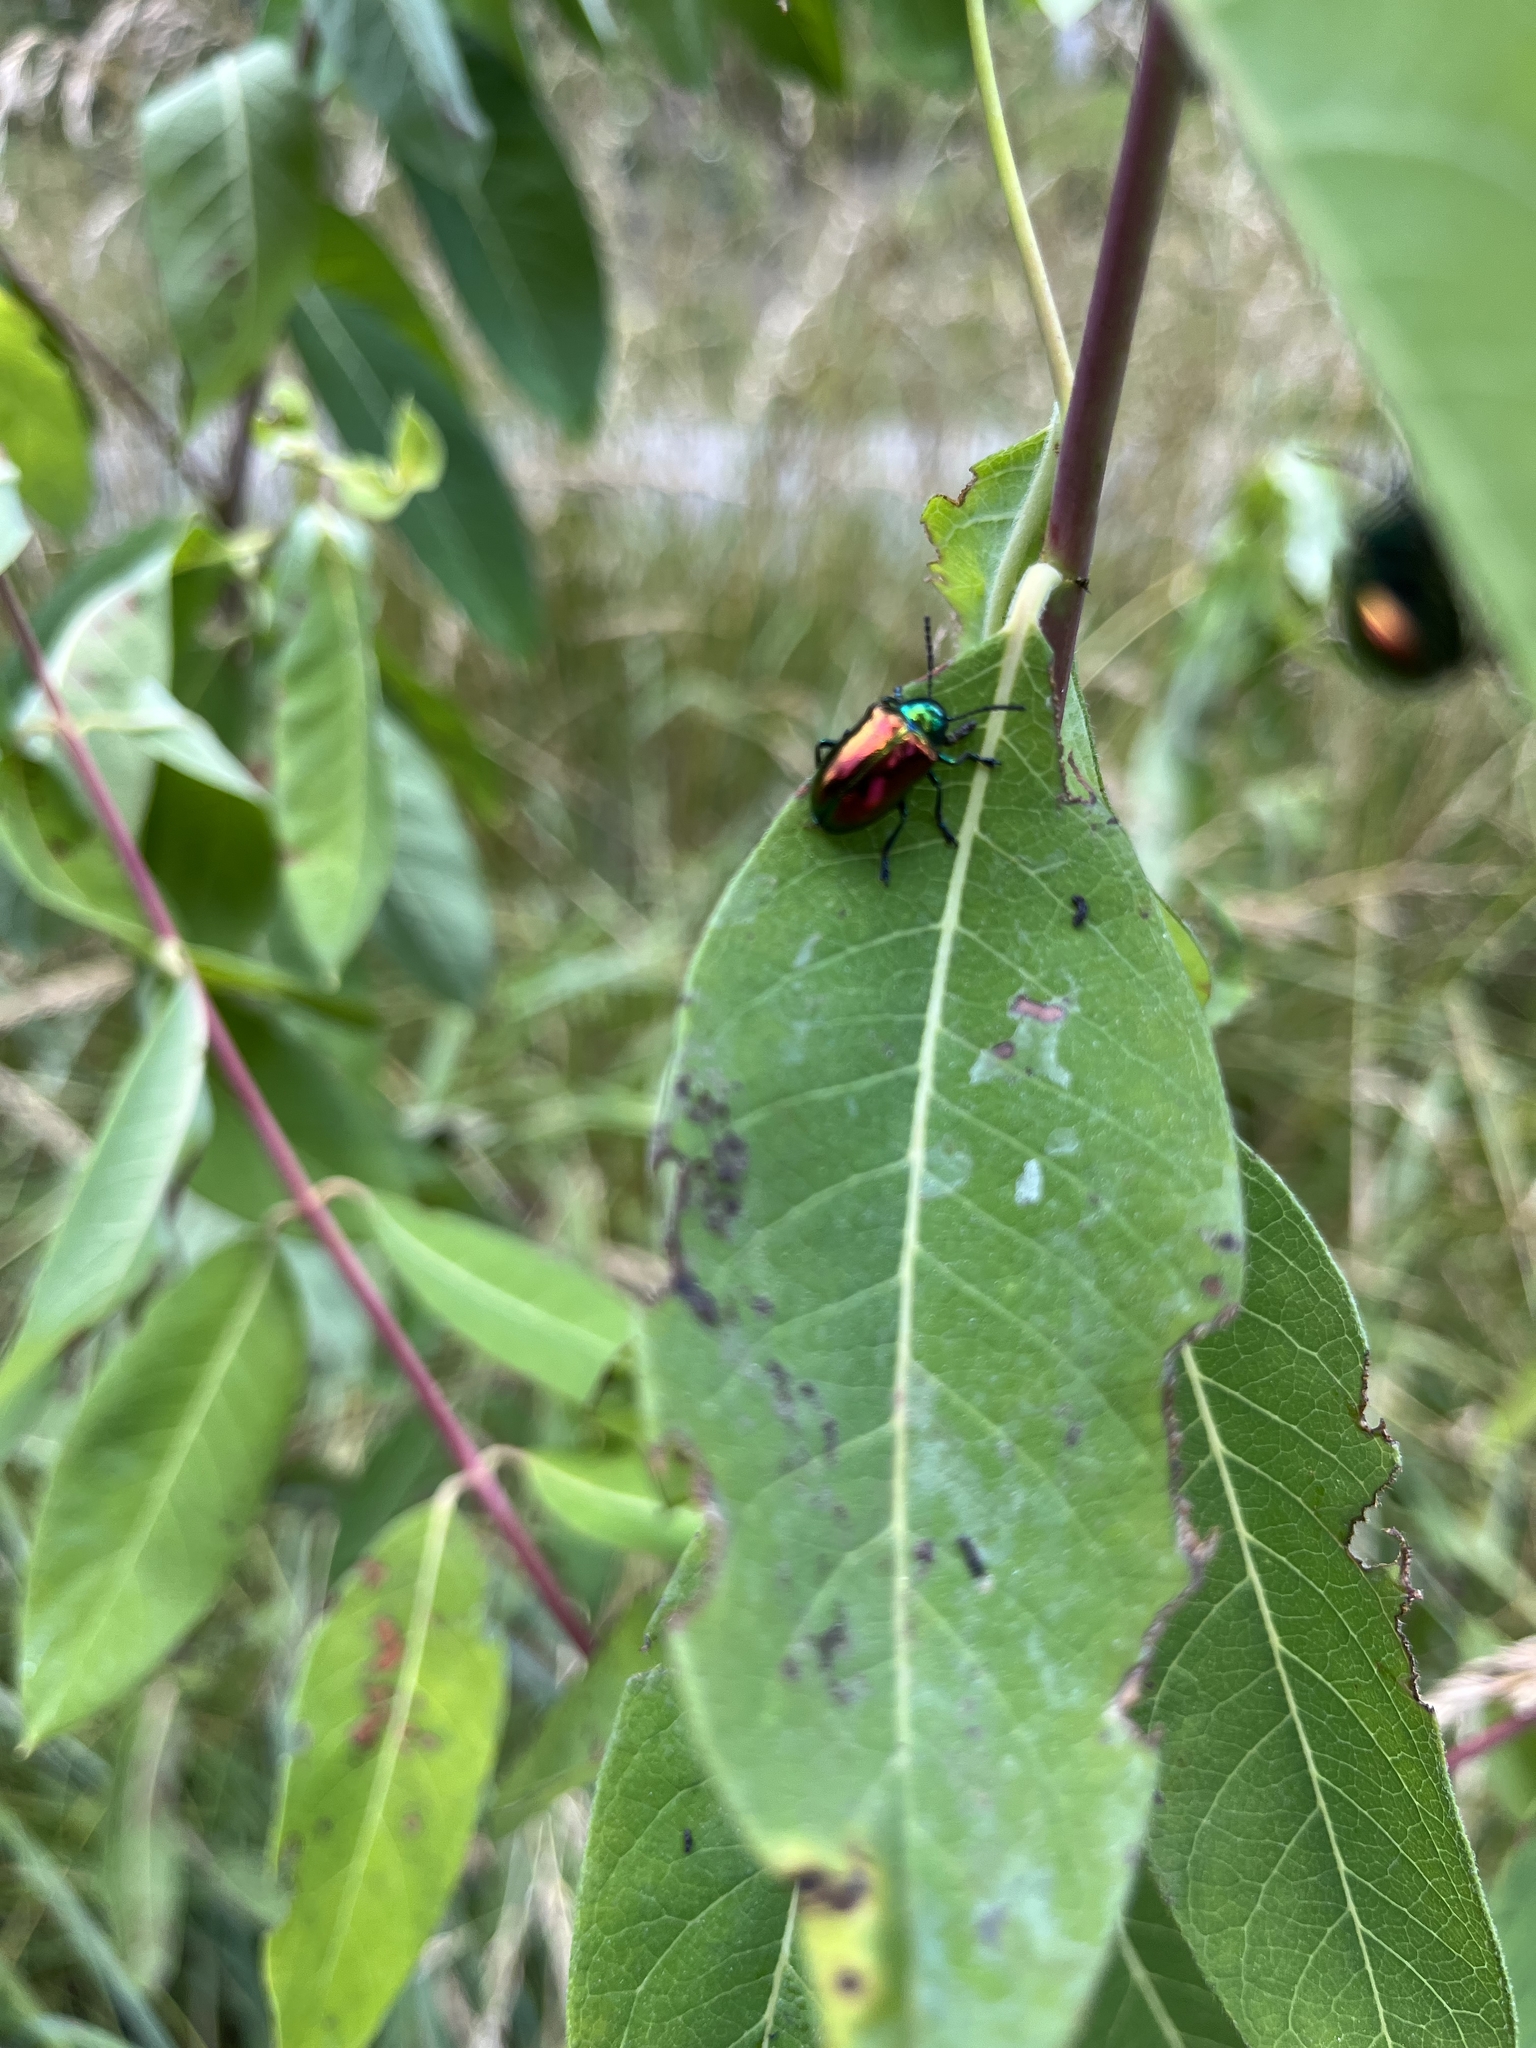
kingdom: Animalia
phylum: Arthropoda
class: Insecta
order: Coleoptera
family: Chrysomelidae
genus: Chrysochus
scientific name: Chrysochus auratus
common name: Dogbane leaf beetle
